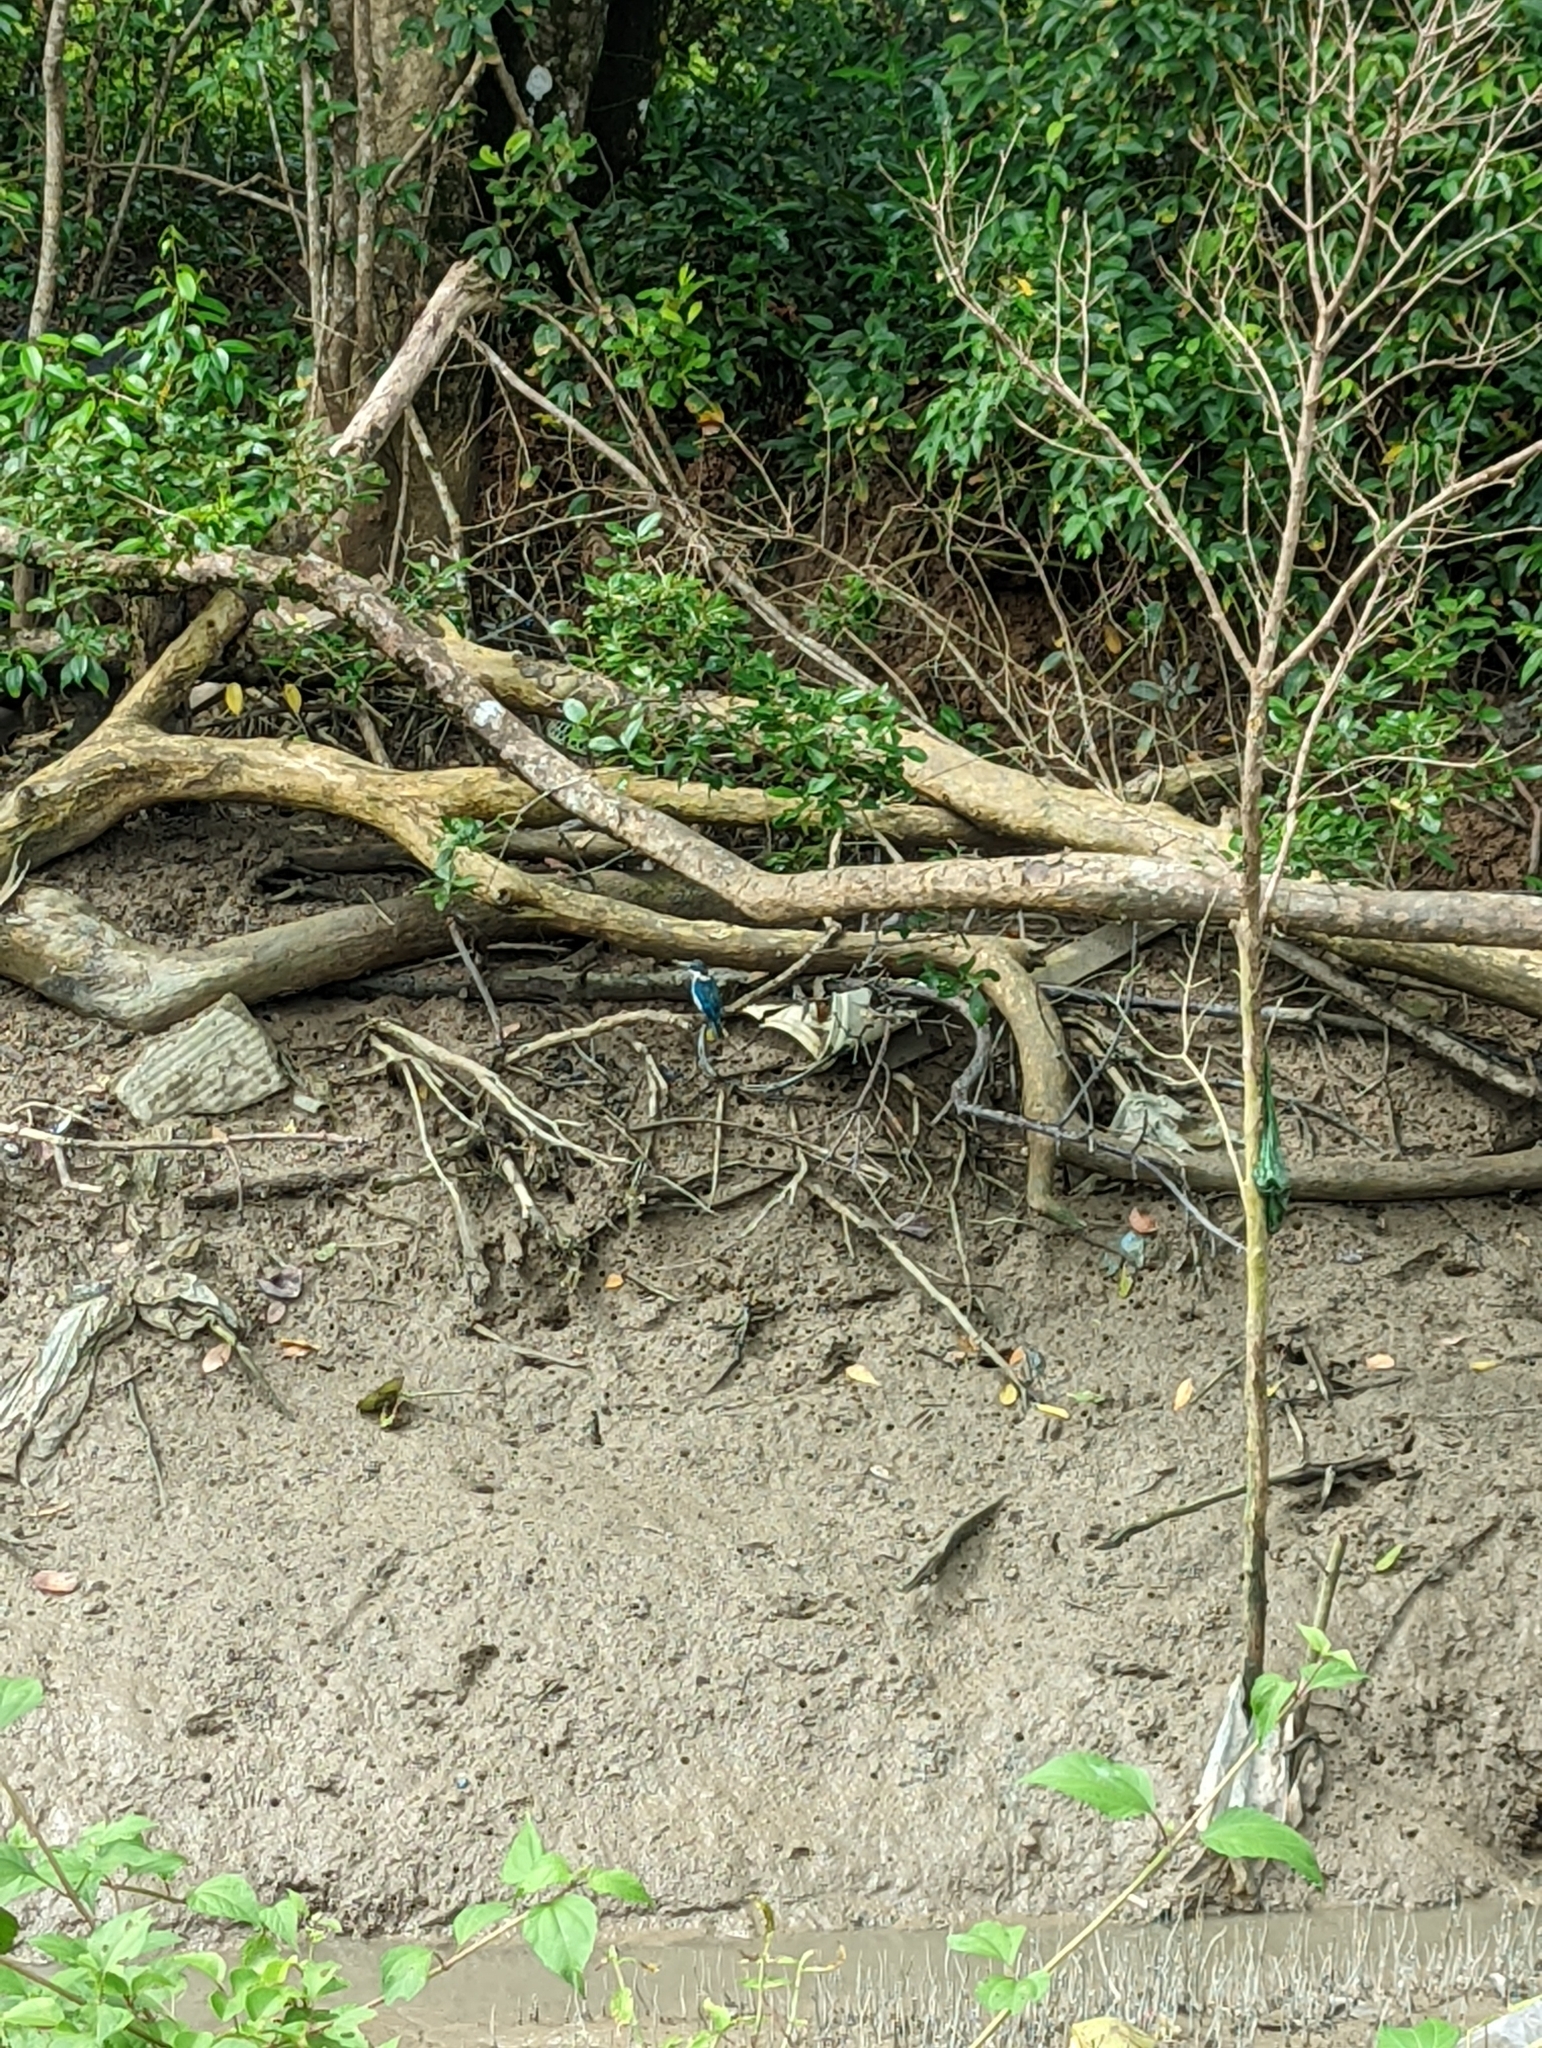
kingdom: Animalia
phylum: Chordata
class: Aves
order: Coraciiformes
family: Alcedinidae
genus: Todiramphus
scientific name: Todiramphus chloris
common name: Collared kingfisher
